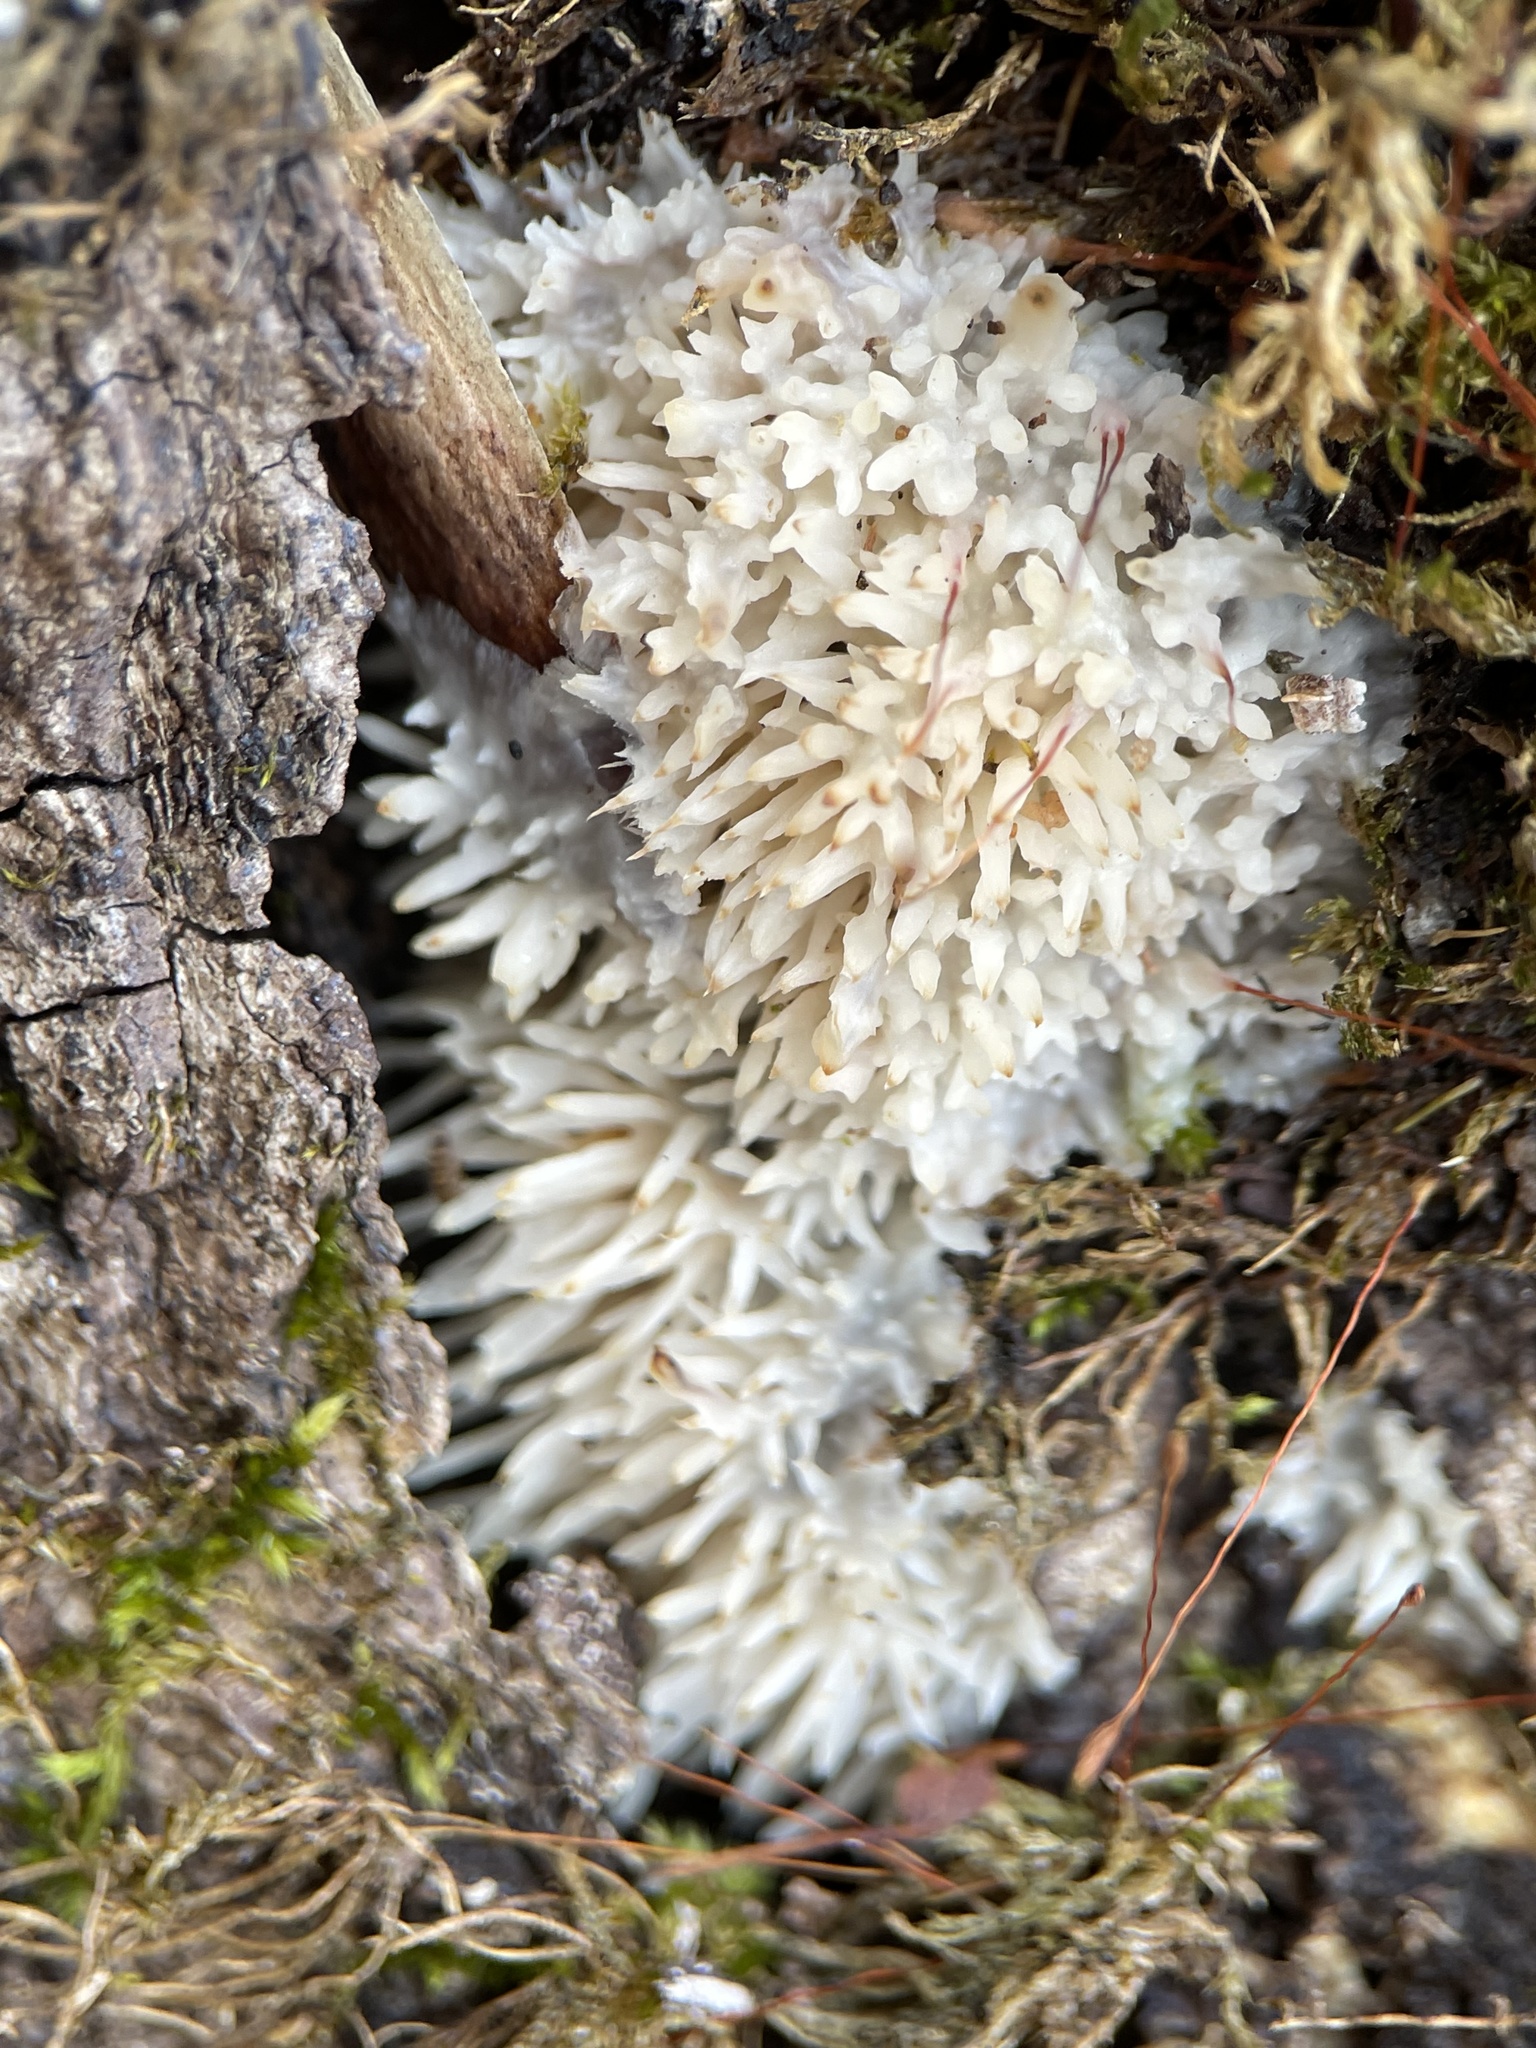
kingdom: Fungi
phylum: Basidiomycota
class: Agaricomycetes
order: Agaricales
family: Radulomycetaceae
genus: Radulomyces
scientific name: Radulomyces copelandii
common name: Asian beauty
